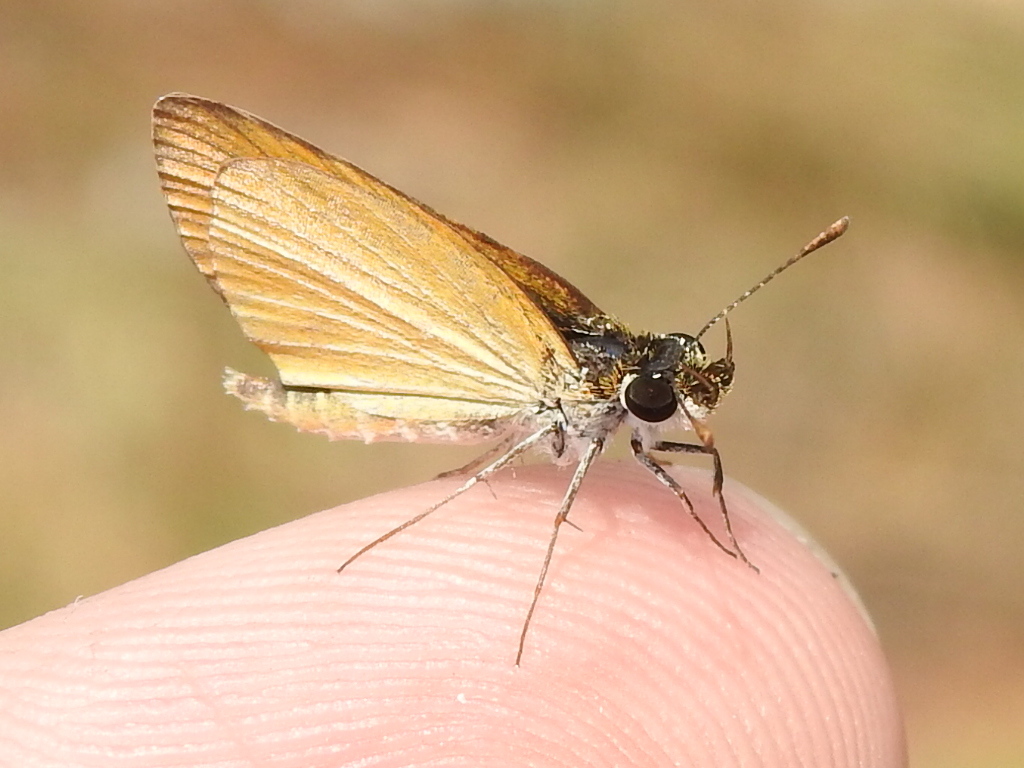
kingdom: Animalia
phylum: Arthropoda
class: Insecta
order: Lepidoptera
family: Hesperiidae
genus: Ancyloxypha
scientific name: Ancyloxypha numitor
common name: Least skipper
